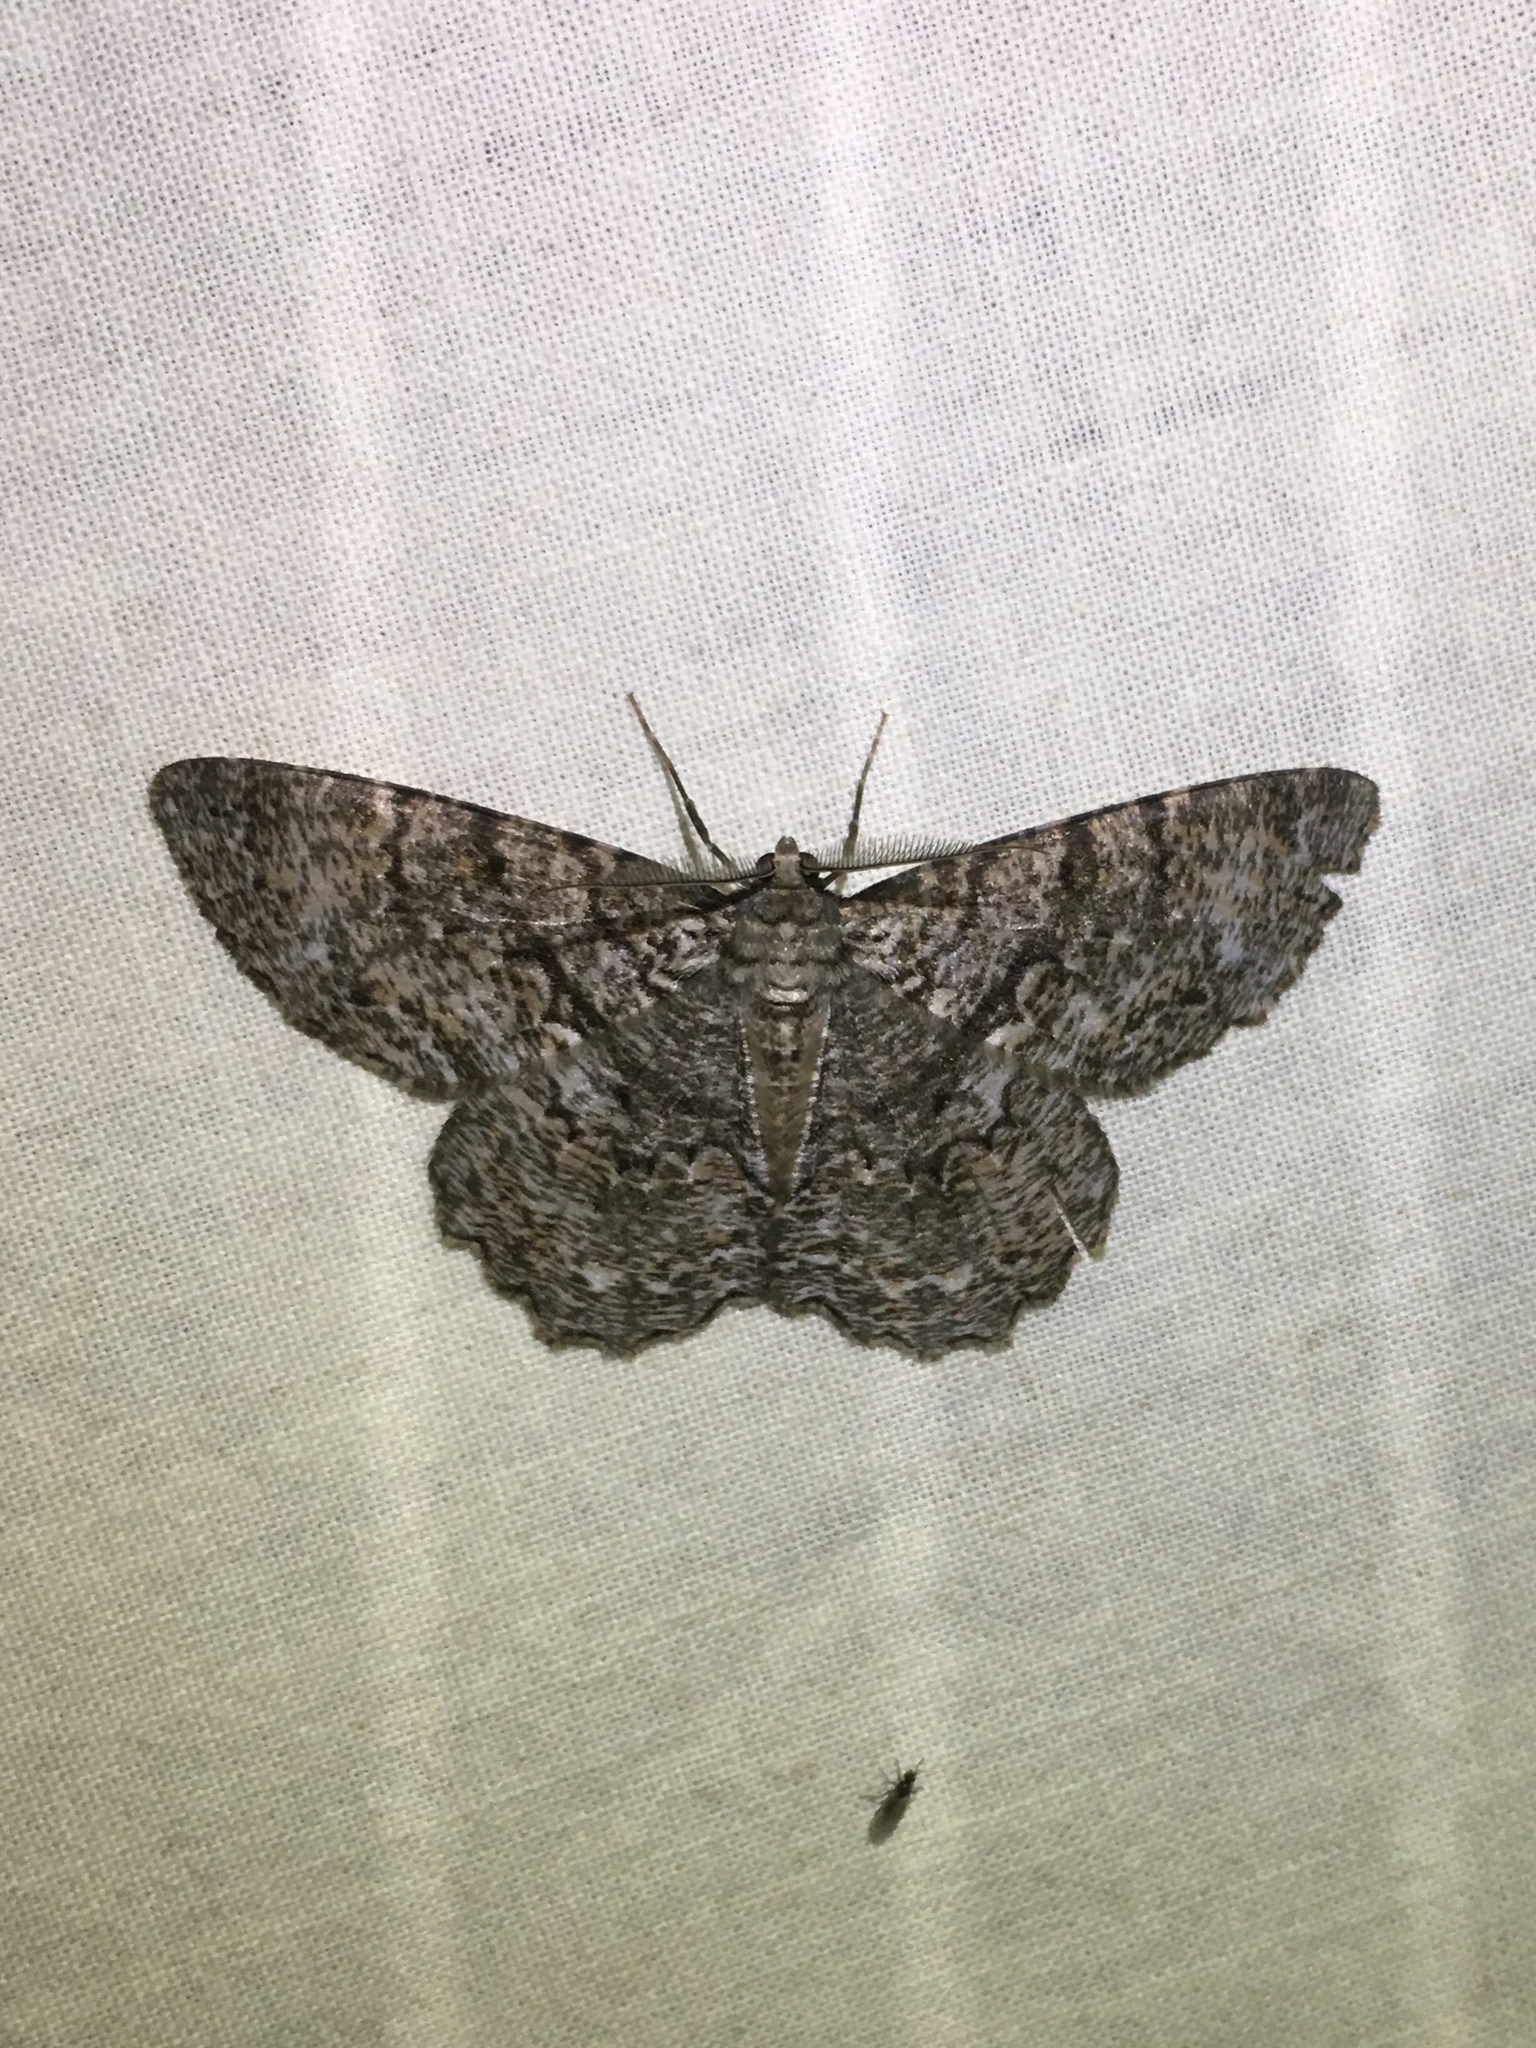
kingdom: Animalia
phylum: Arthropoda
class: Insecta
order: Lepidoptera
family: Geometridae
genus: Epimecis
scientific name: Epimecis hortaria
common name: Tulip-tree beauty
